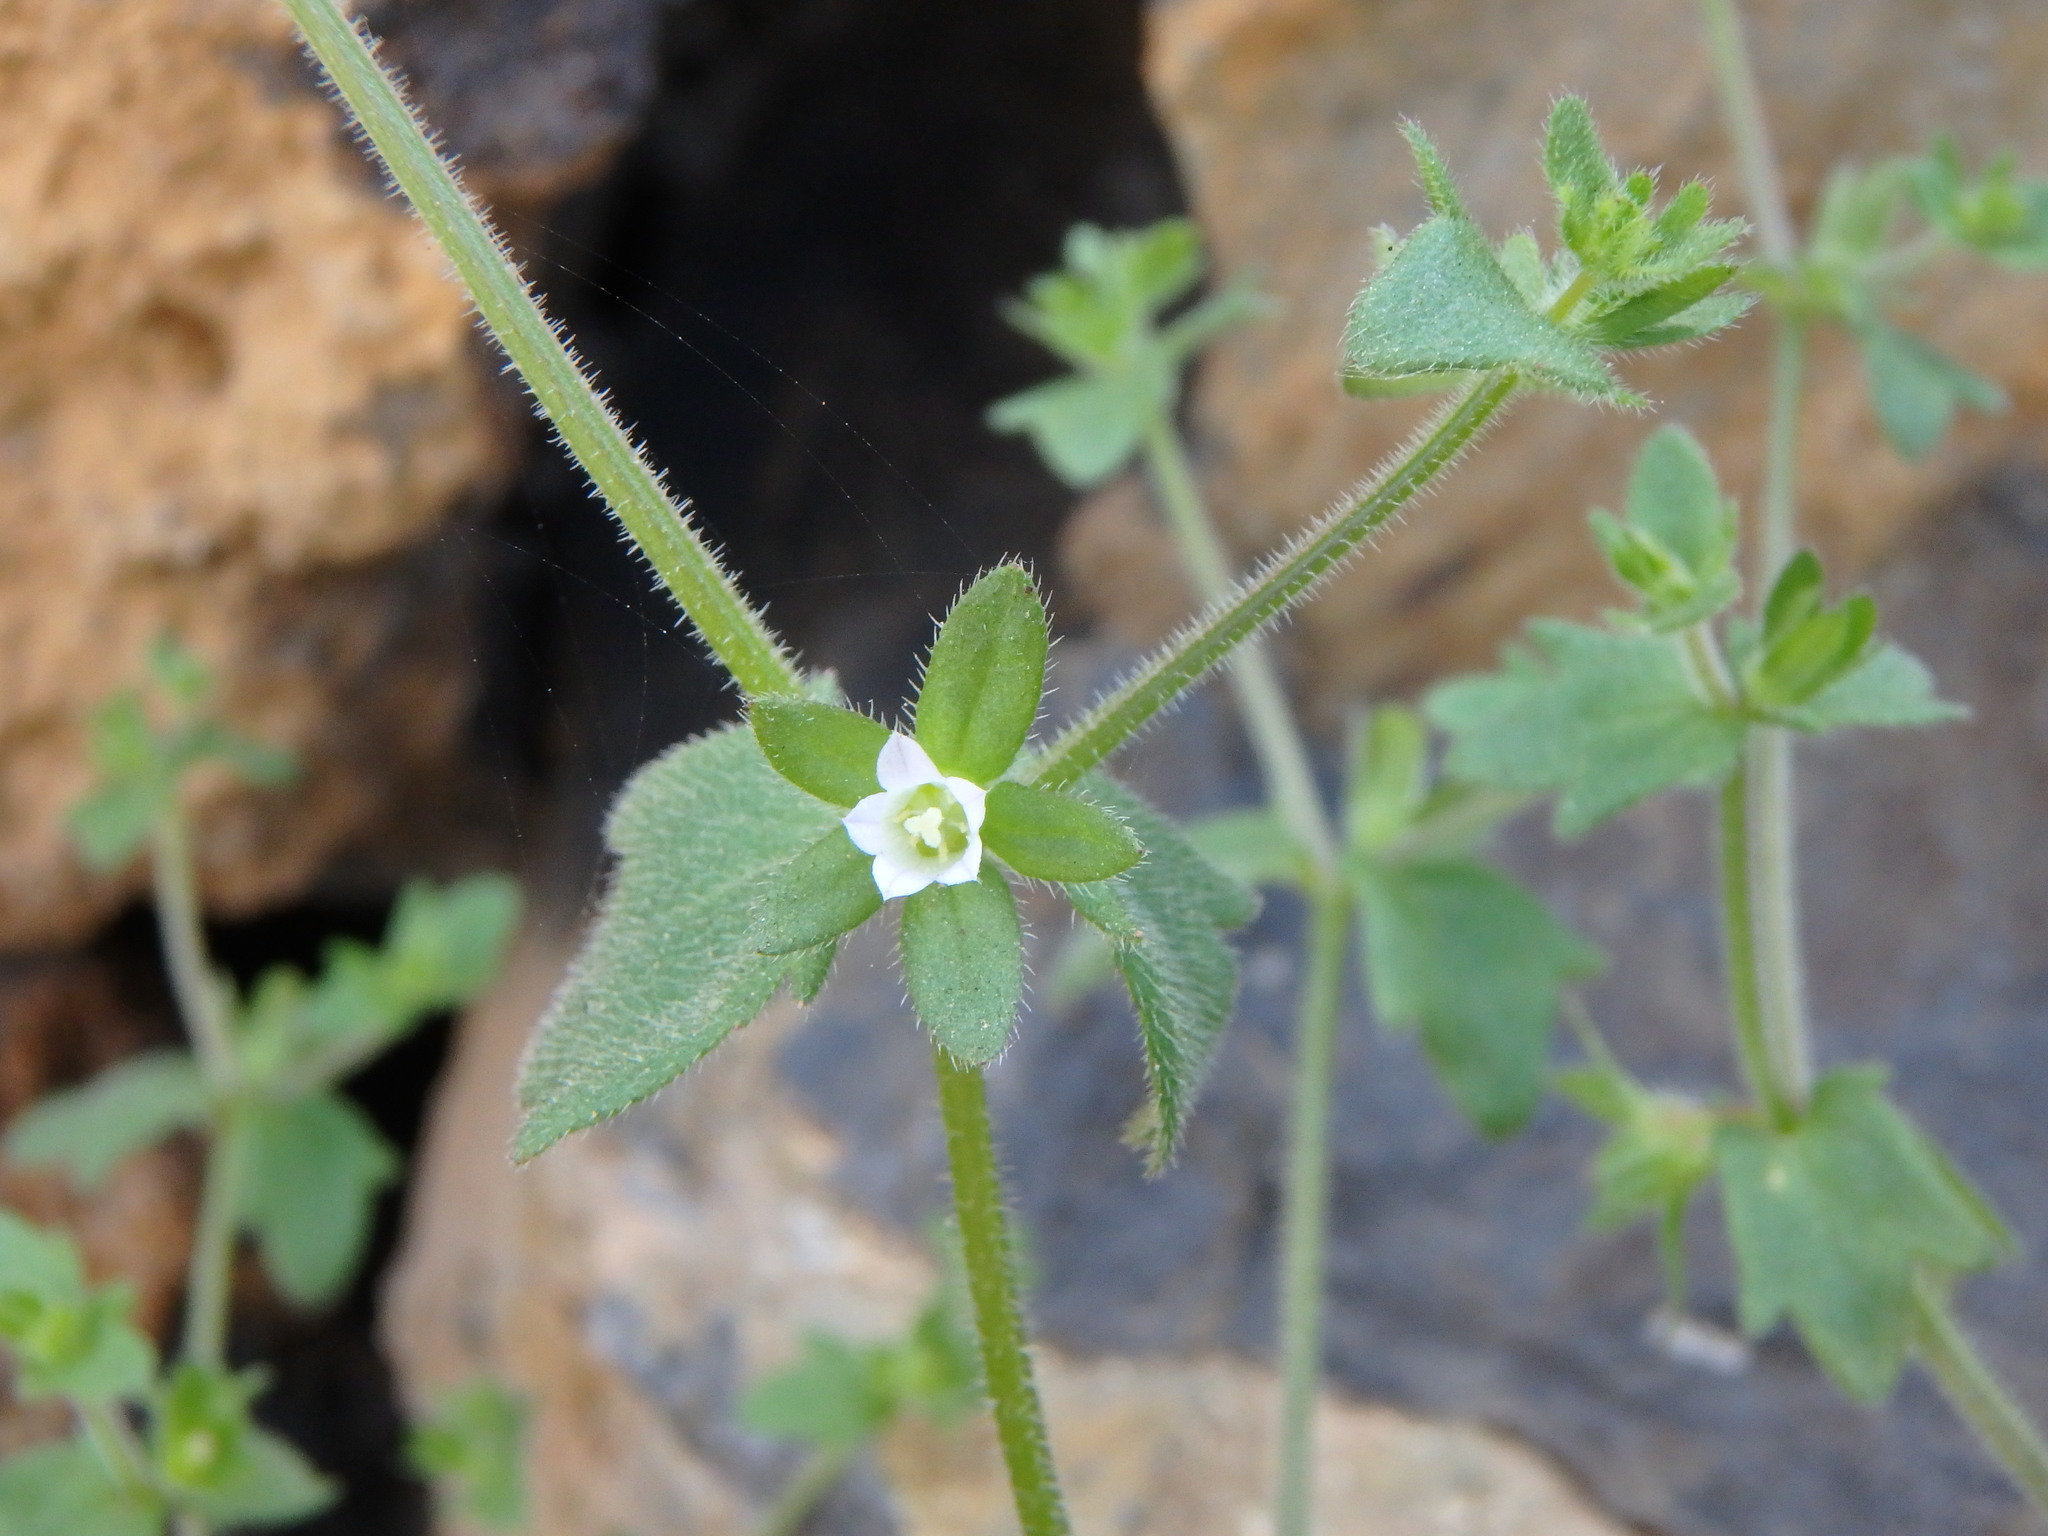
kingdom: Plantae
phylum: Tracheophyta
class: Magnoliopsida
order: Asterales
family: Campanulaceae
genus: Campanula
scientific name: Campanula erinus
